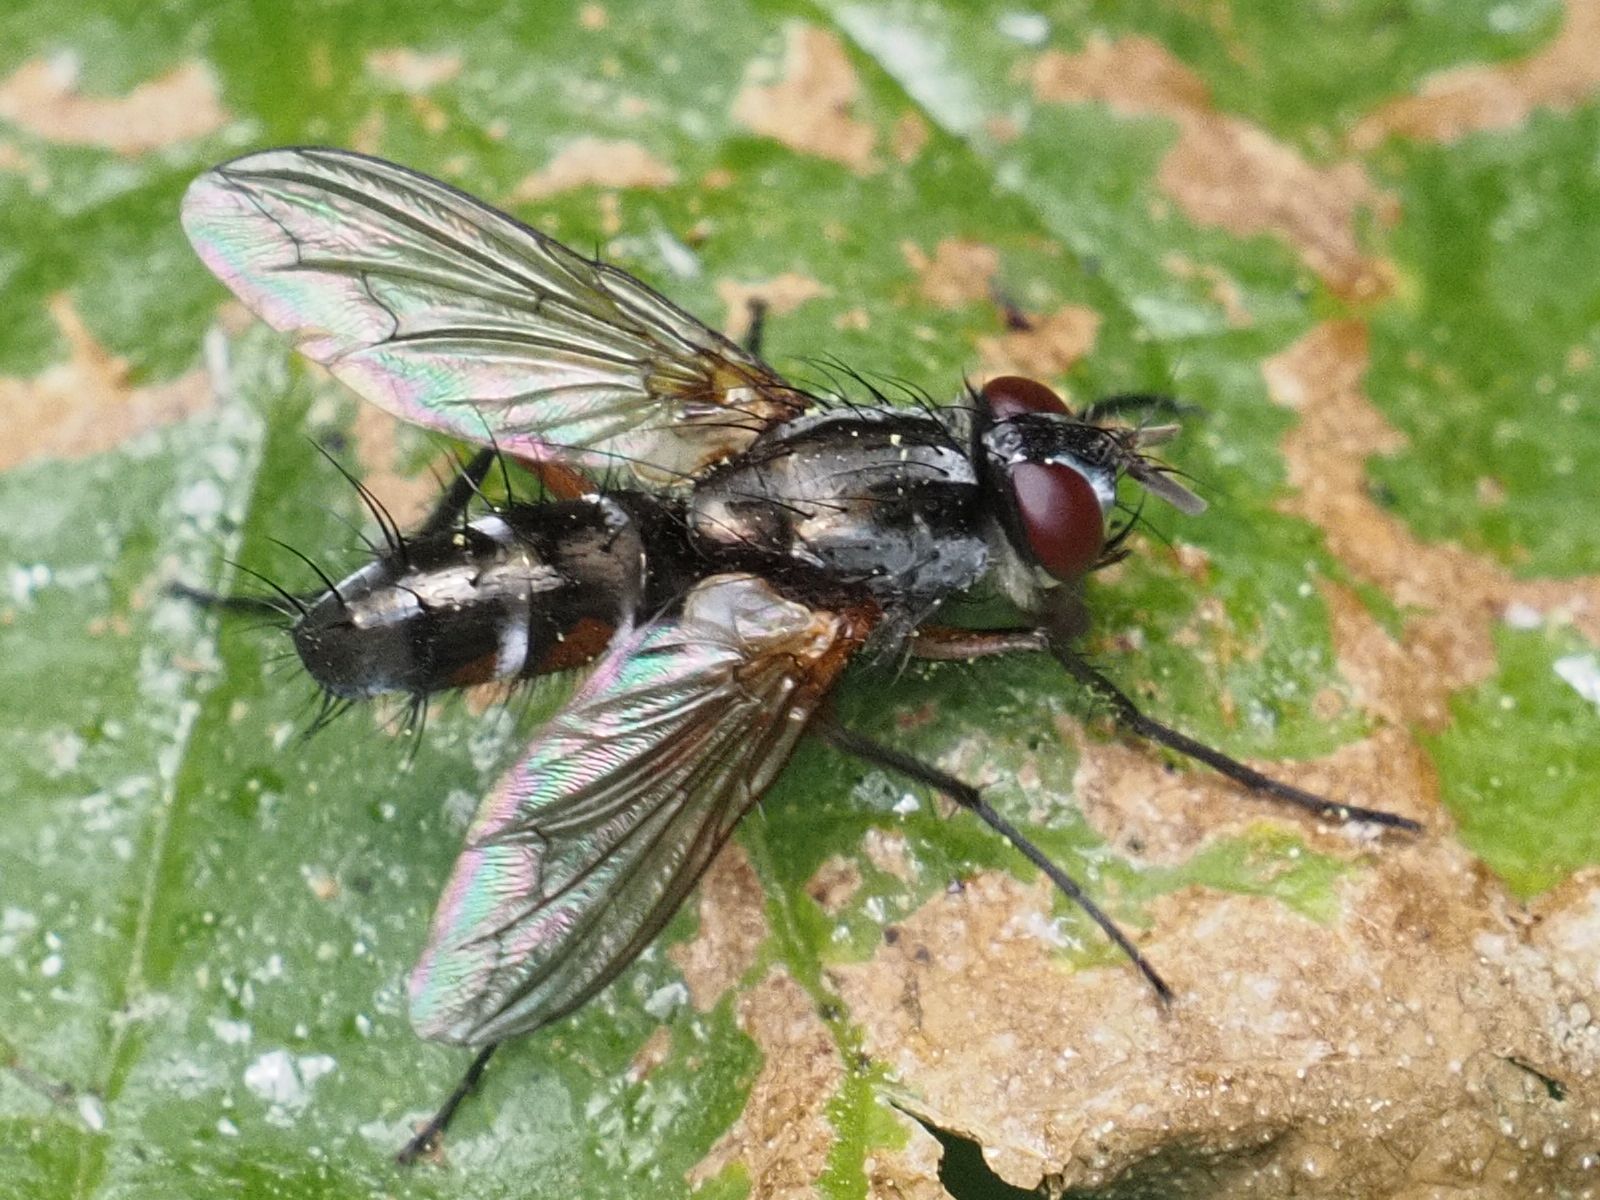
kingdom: Animalia
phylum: Arthropoda
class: Insecta
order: Diptera
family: Tachinidae
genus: Mintho
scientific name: Mintho rufiventris
